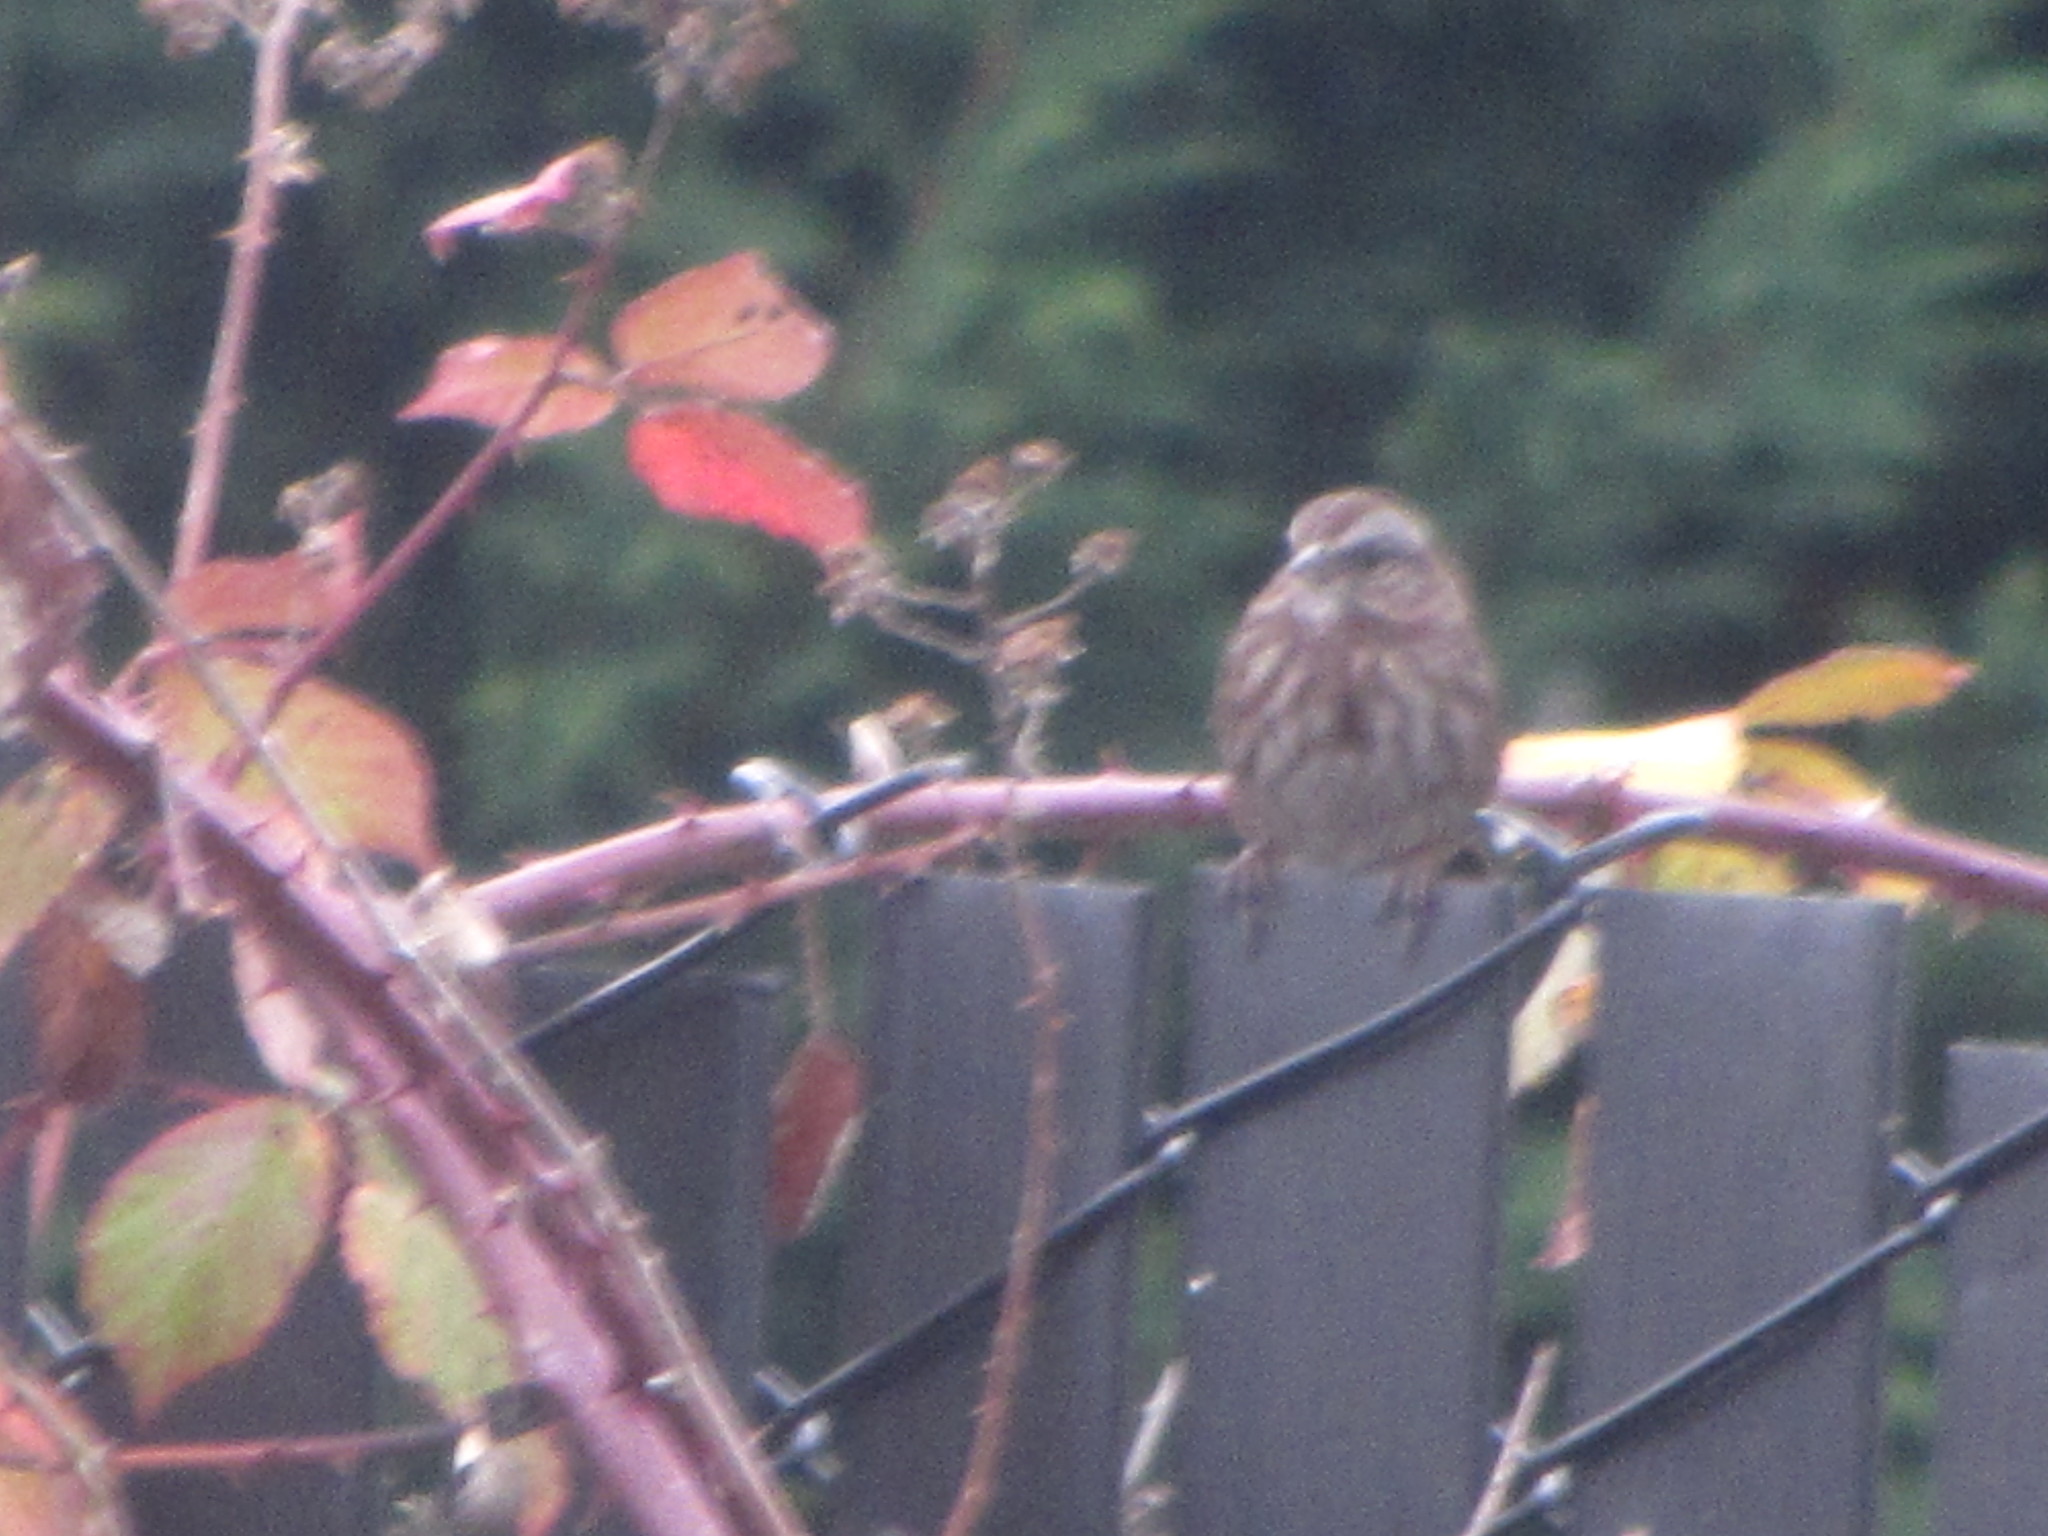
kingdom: Animalia
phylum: Chordata
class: Aves
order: Passeriformes
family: Passerellidae
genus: Melospiza
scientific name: Melospiza melodia
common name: Song sparrow
